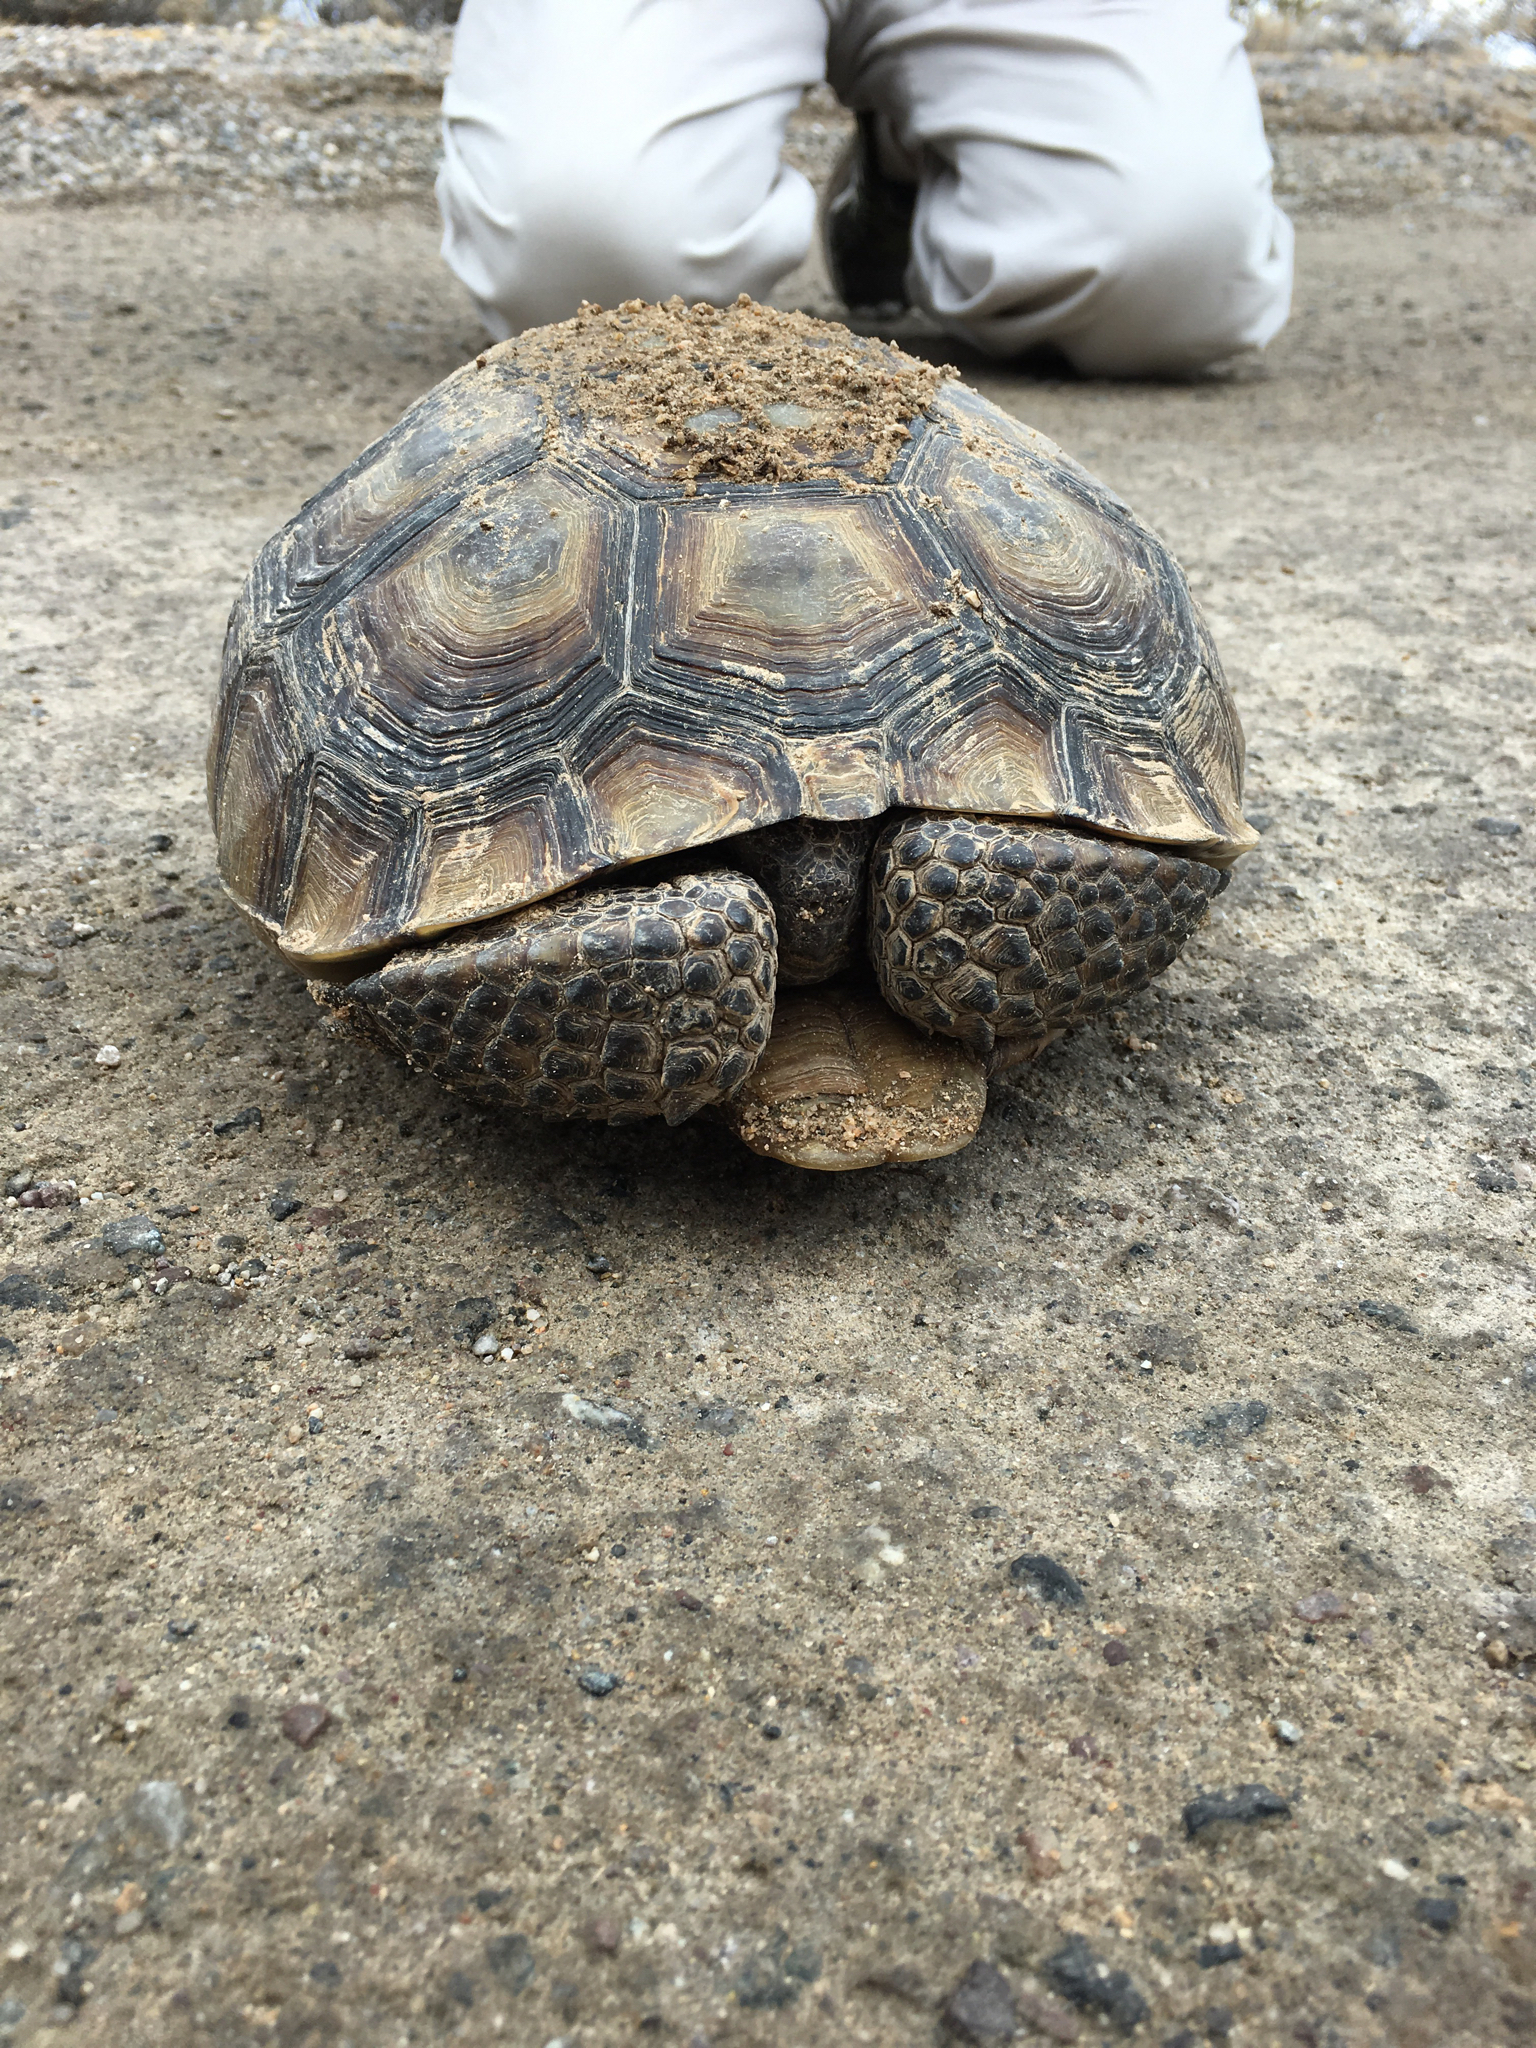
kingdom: Animalia
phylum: Chordata
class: Testudines
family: Testudinidae
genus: Gopherus
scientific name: Gopherus agassizii
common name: Mojave desert tortoise
